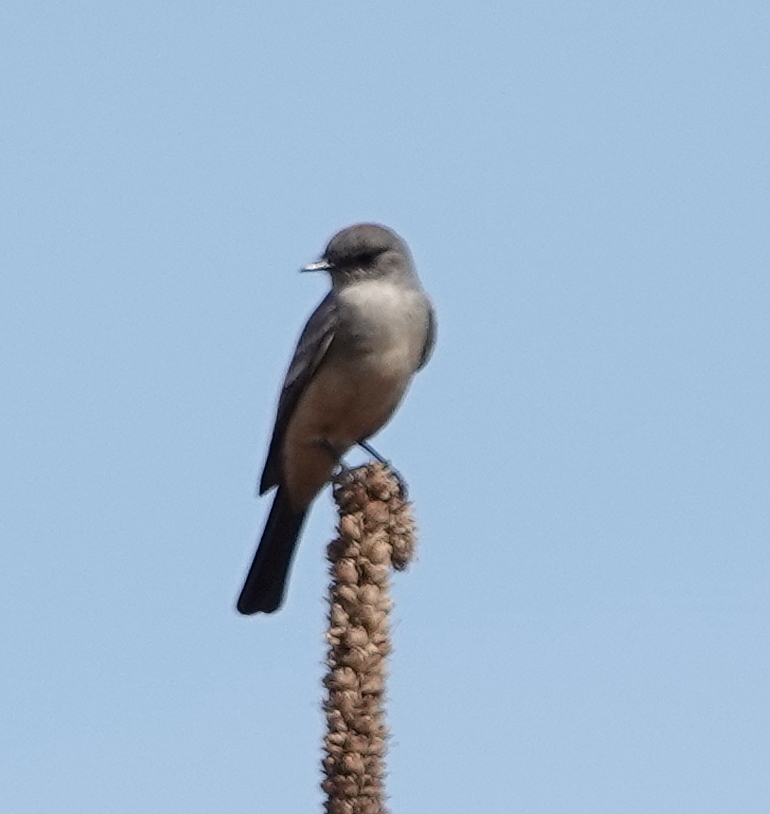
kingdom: Animalia
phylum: Chordata
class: Aves
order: Passeriformes
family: Tyrannidae
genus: Sayornis
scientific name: Sayornis saya
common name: Say's phoebe
